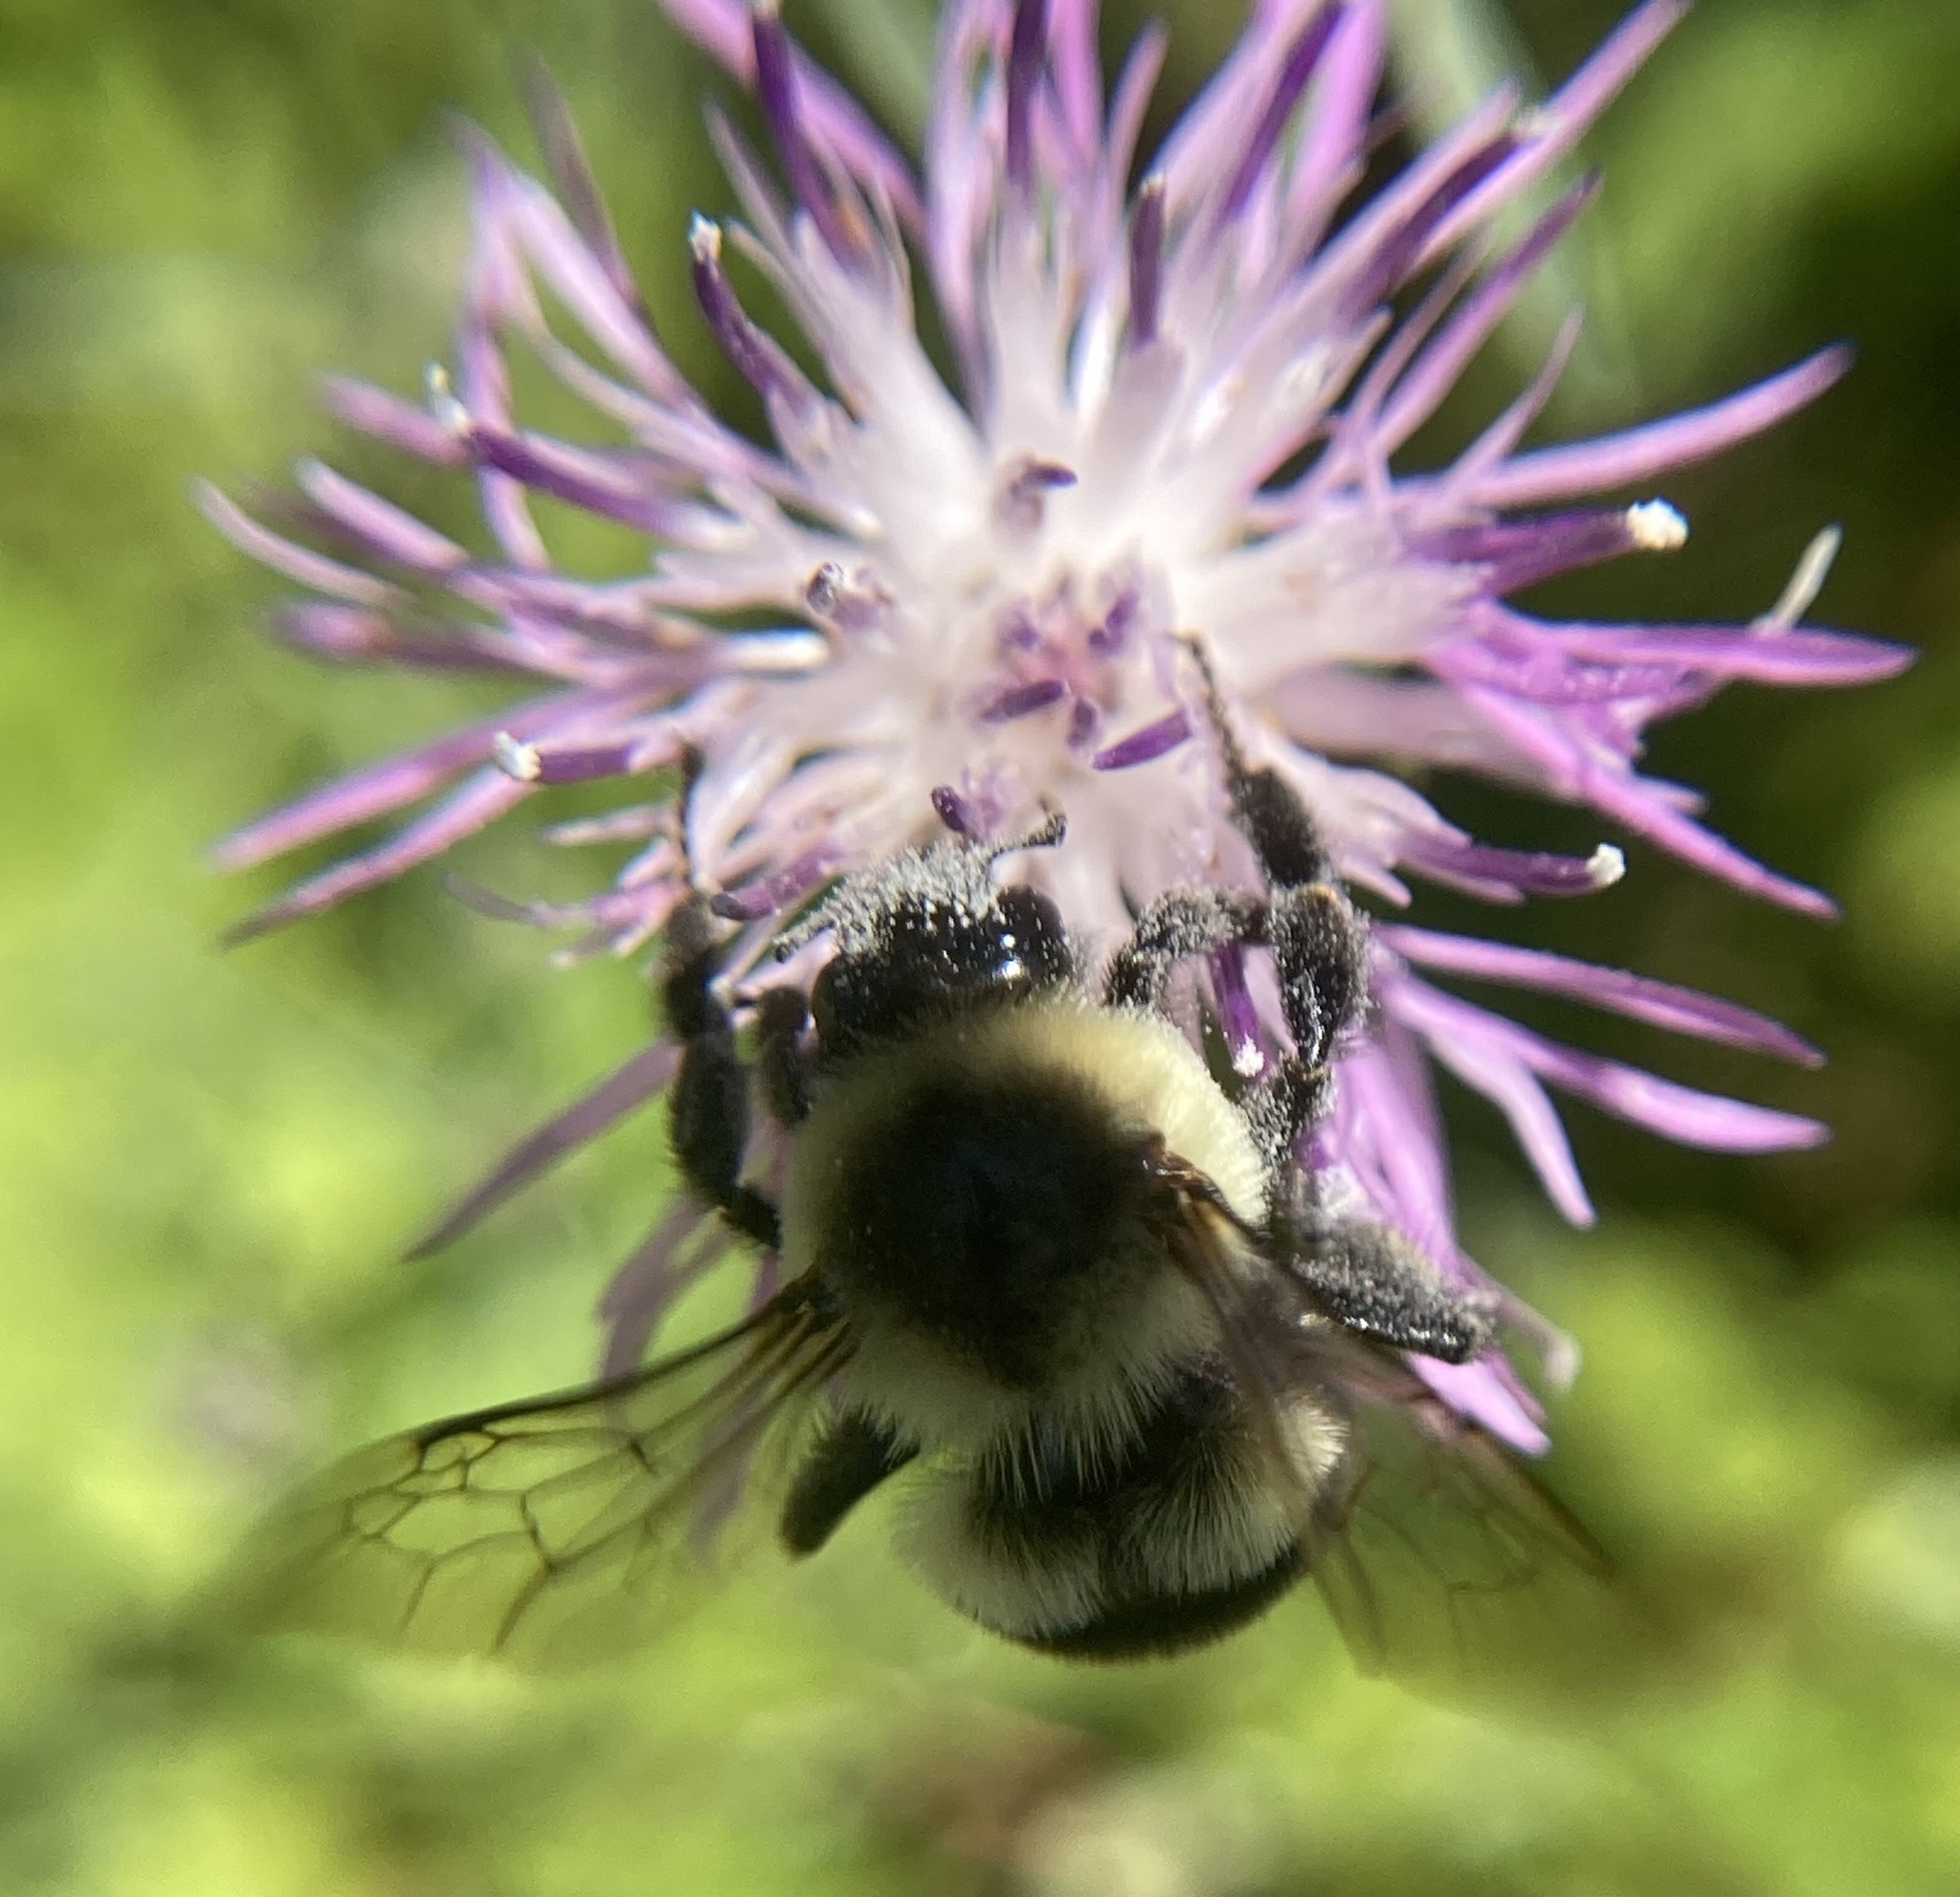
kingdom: Animalia
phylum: Arthropoda
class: Insecta
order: Hymenoptera
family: Apidae
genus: Bombus
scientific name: Bombus impatiens
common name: Common eastern bumble bee
